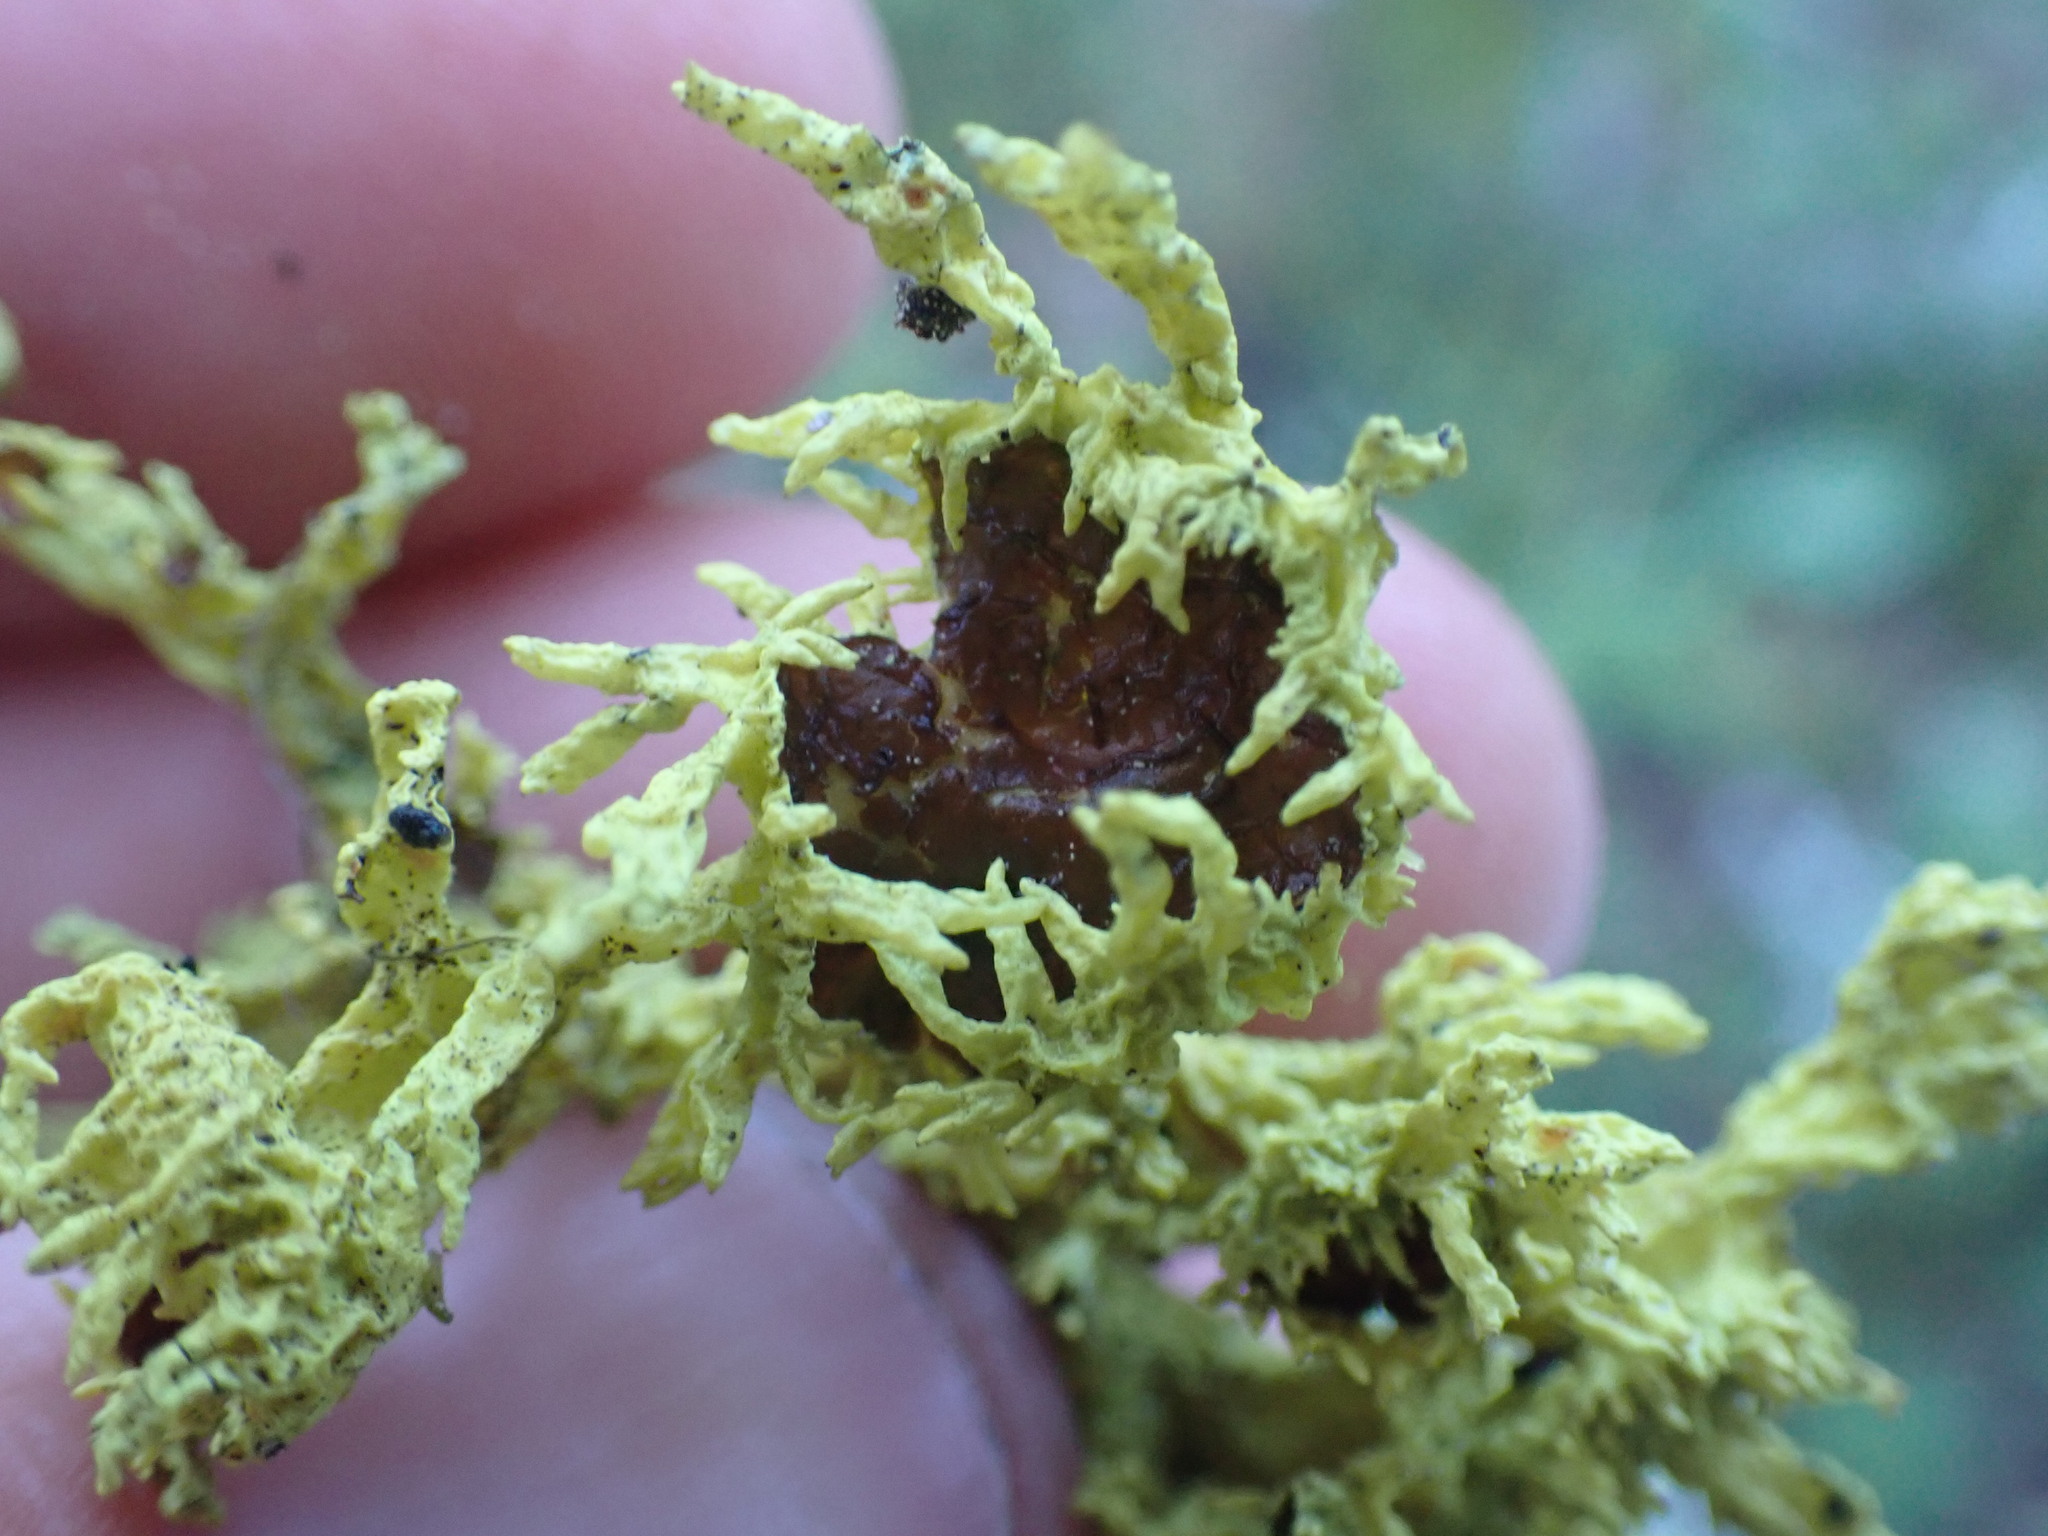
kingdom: Fungi
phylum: Ascomycota
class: Lecanoromycetes
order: Lecanorales
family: Parmeliaceae
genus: Letharia
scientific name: Letharia columbiana
